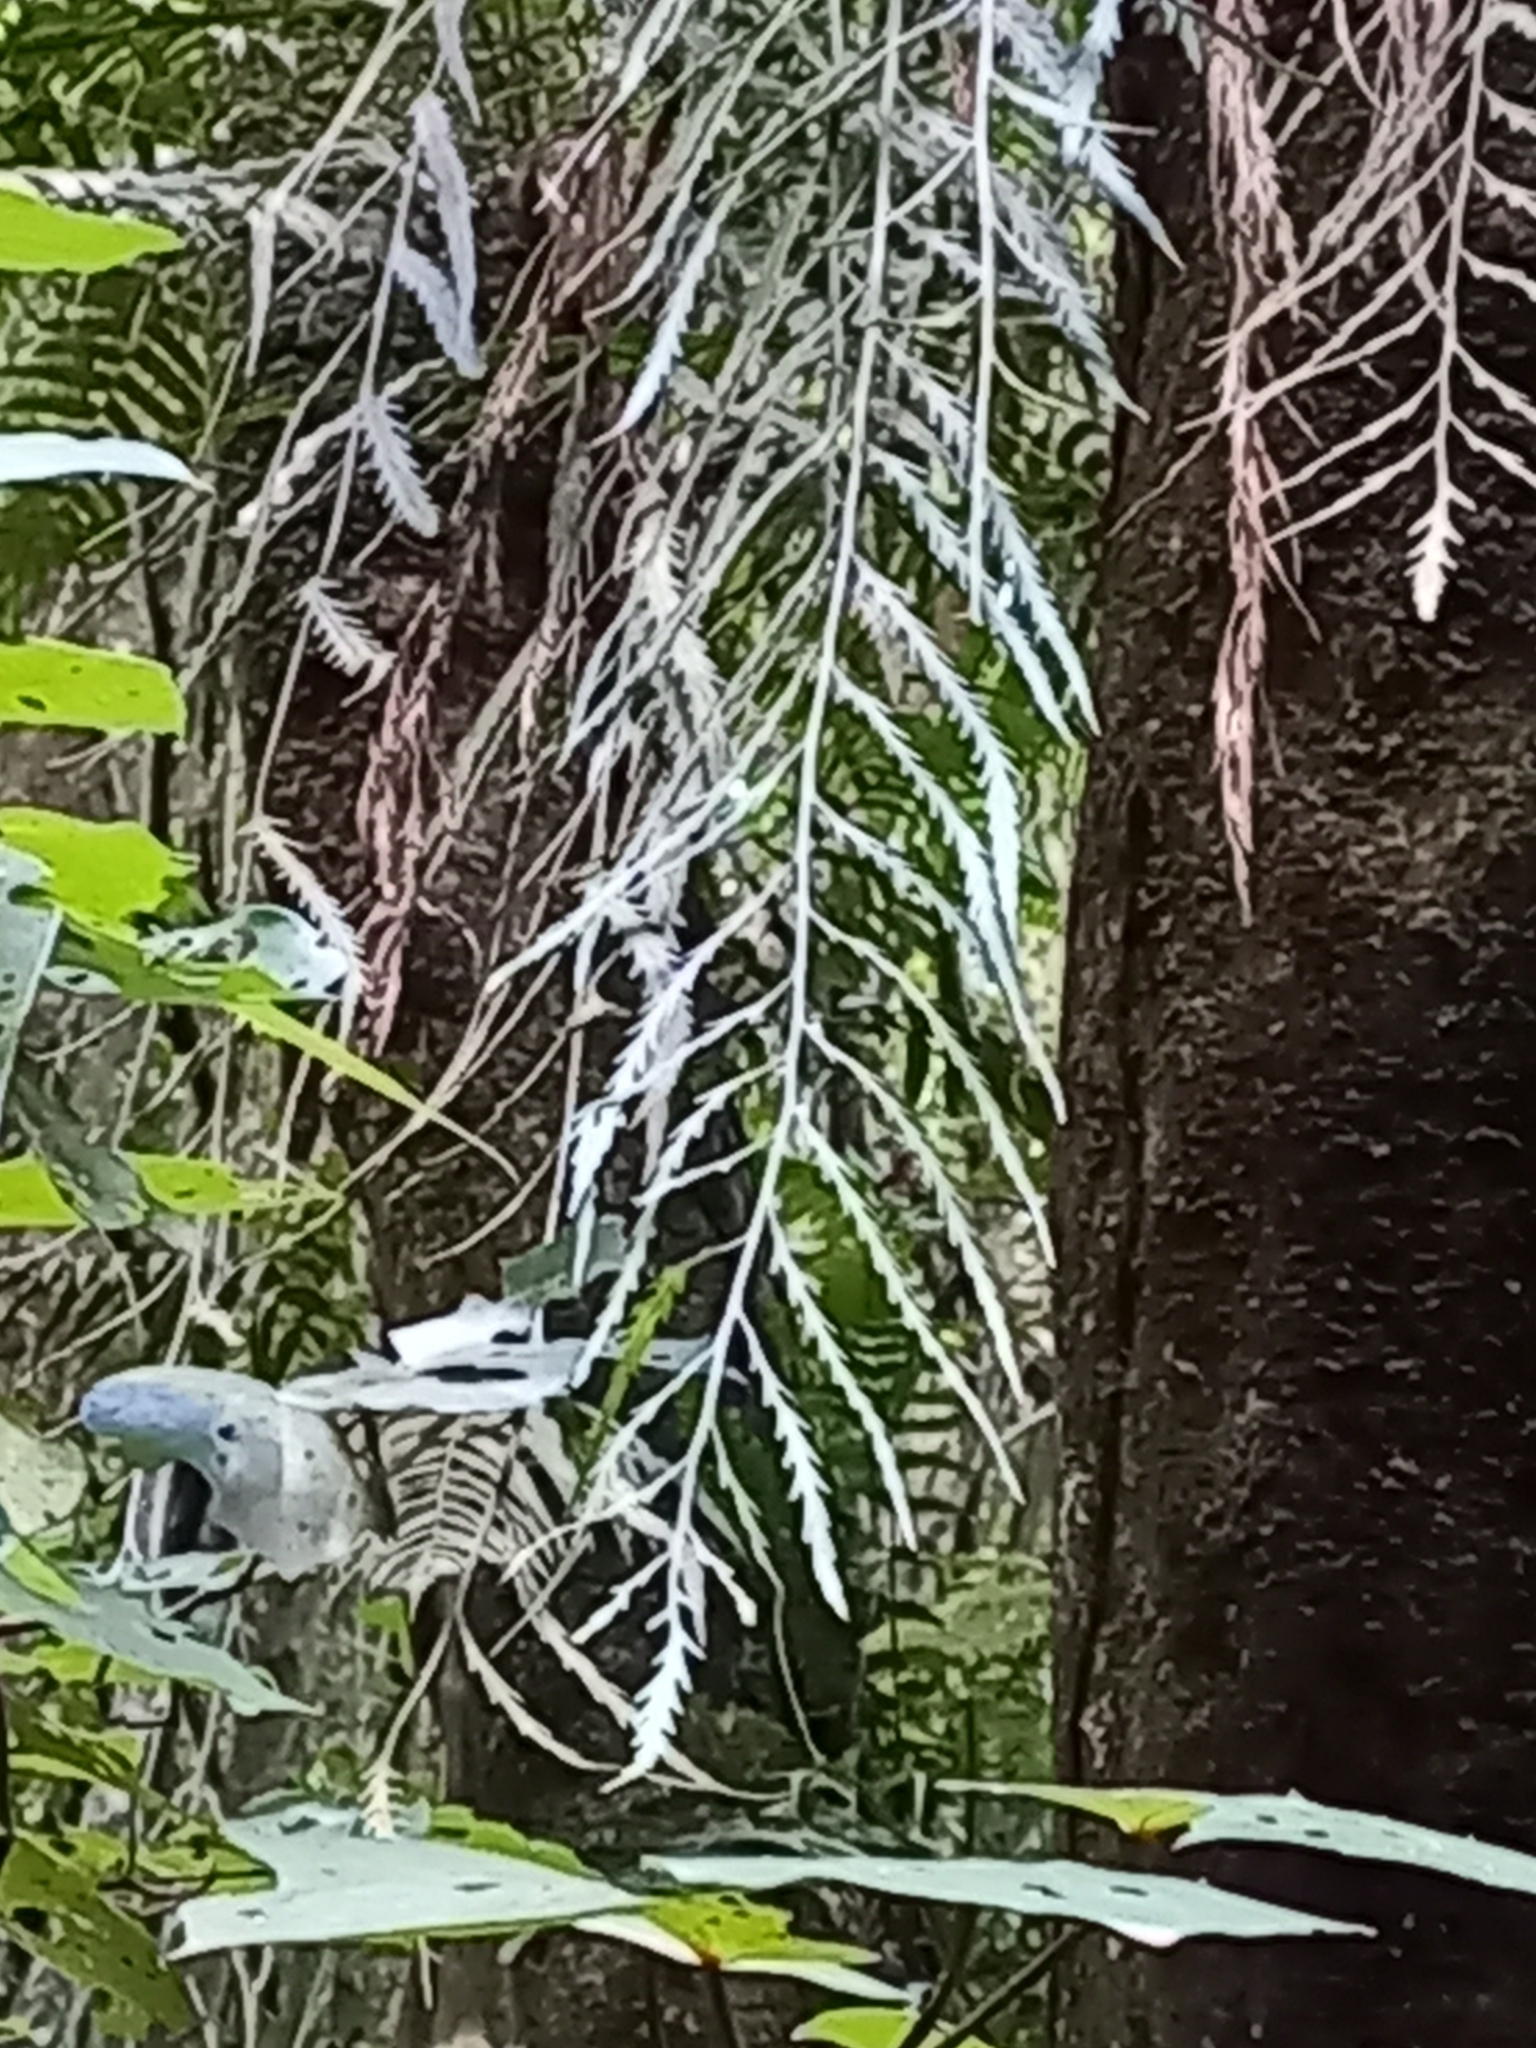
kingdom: Plantae
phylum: Tracheophyta
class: Polypodiopsida
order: Polypodiales
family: Aspleniaceae
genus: Asplenium
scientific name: Asplenium flaccidum
